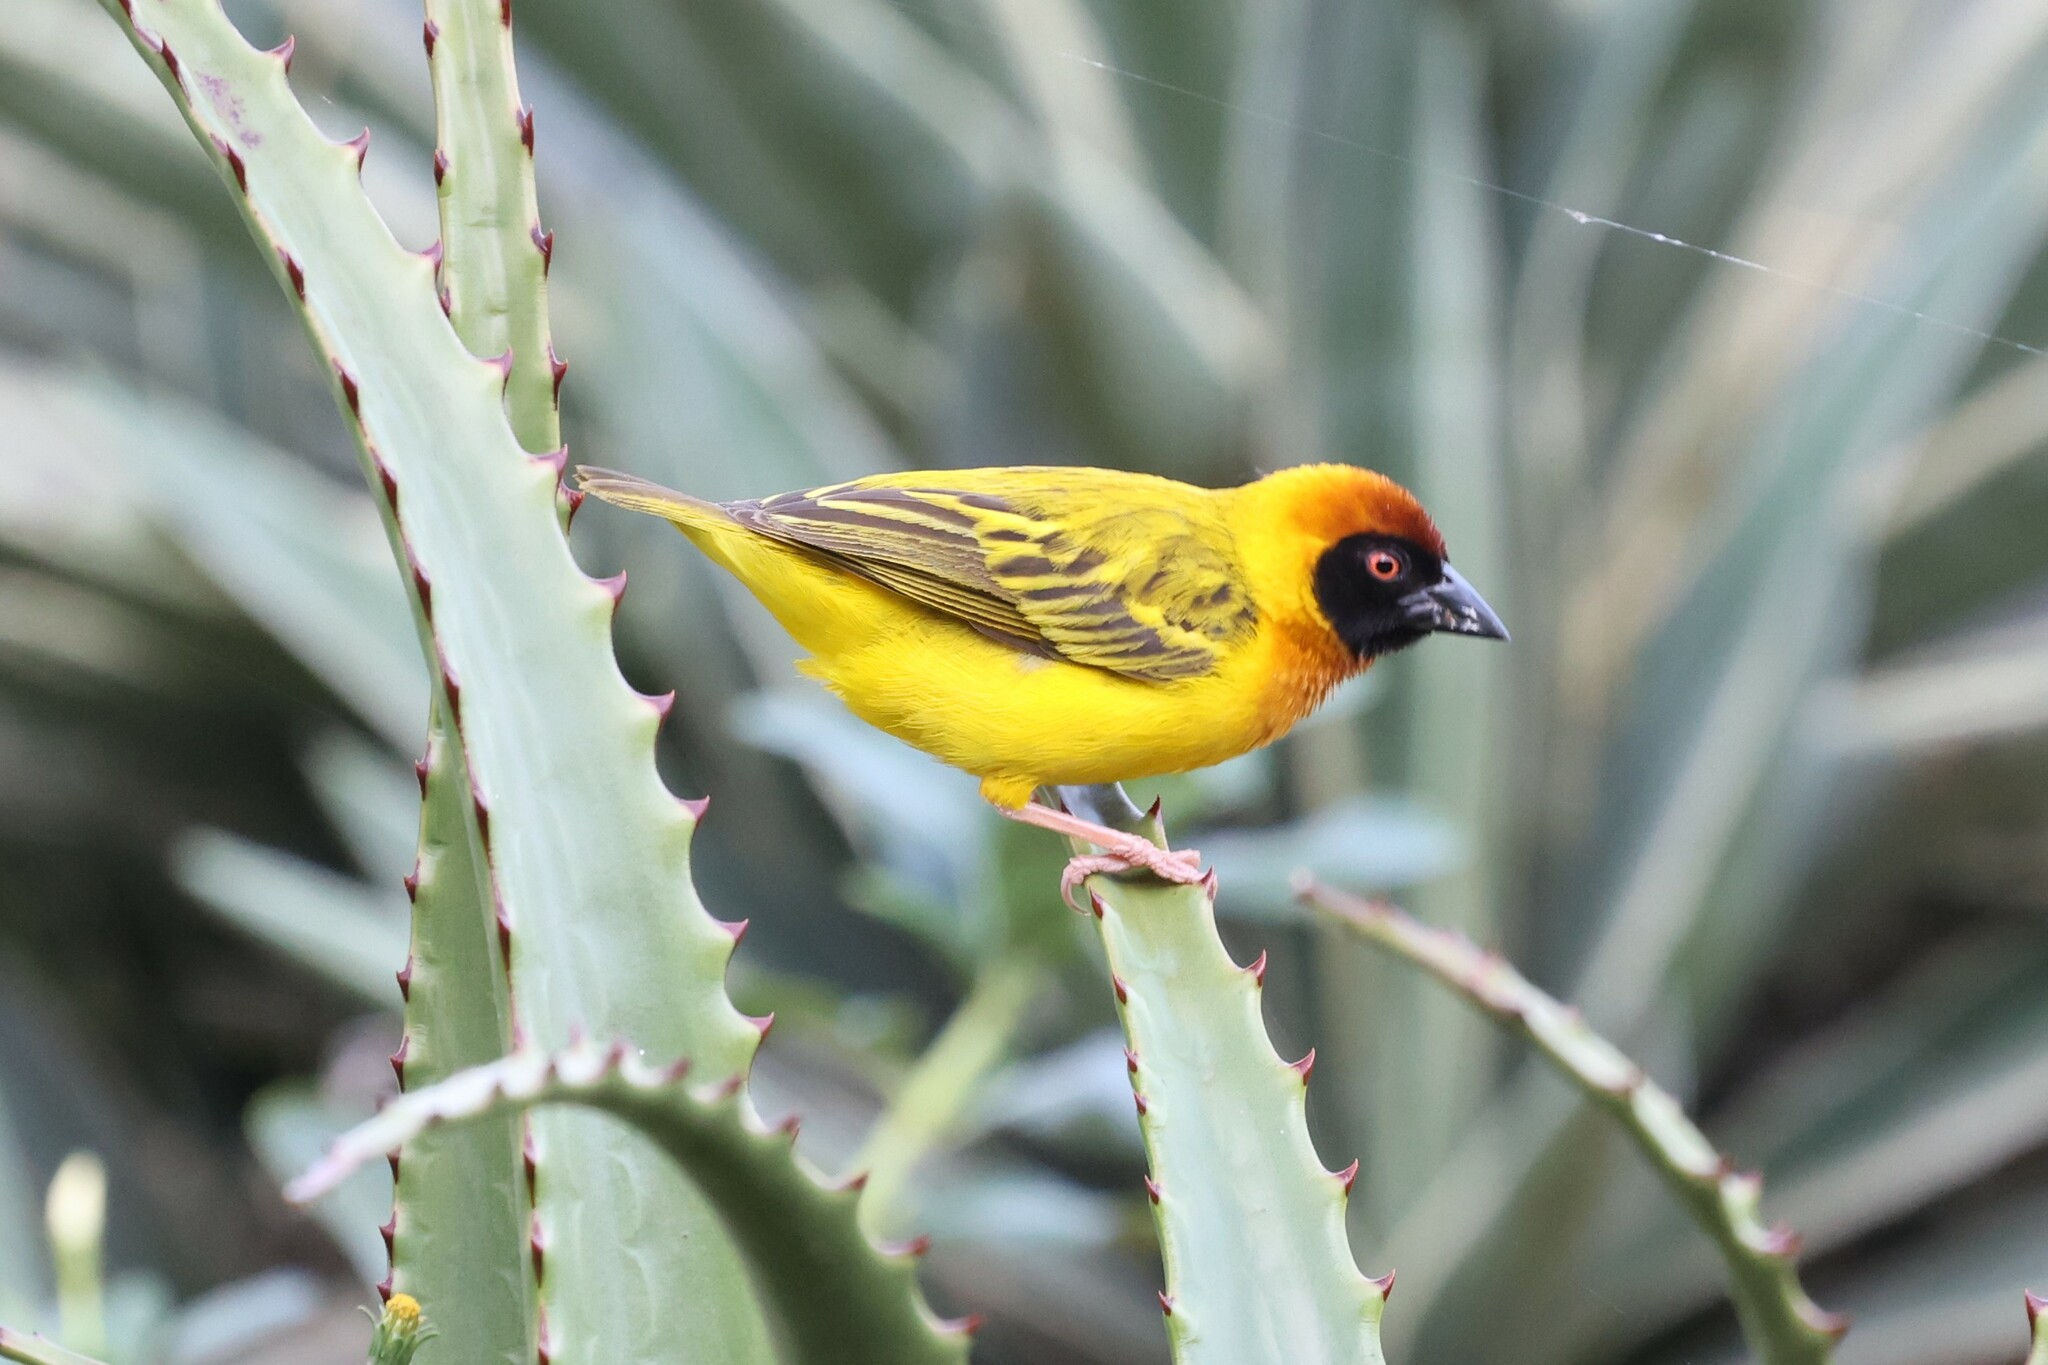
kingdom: Animalia
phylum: Chordata
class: Aves
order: Passeriformes
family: Ploceidae
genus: Ploceus
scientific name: Ploceus vitellinus
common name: Vitelline masked weaver
